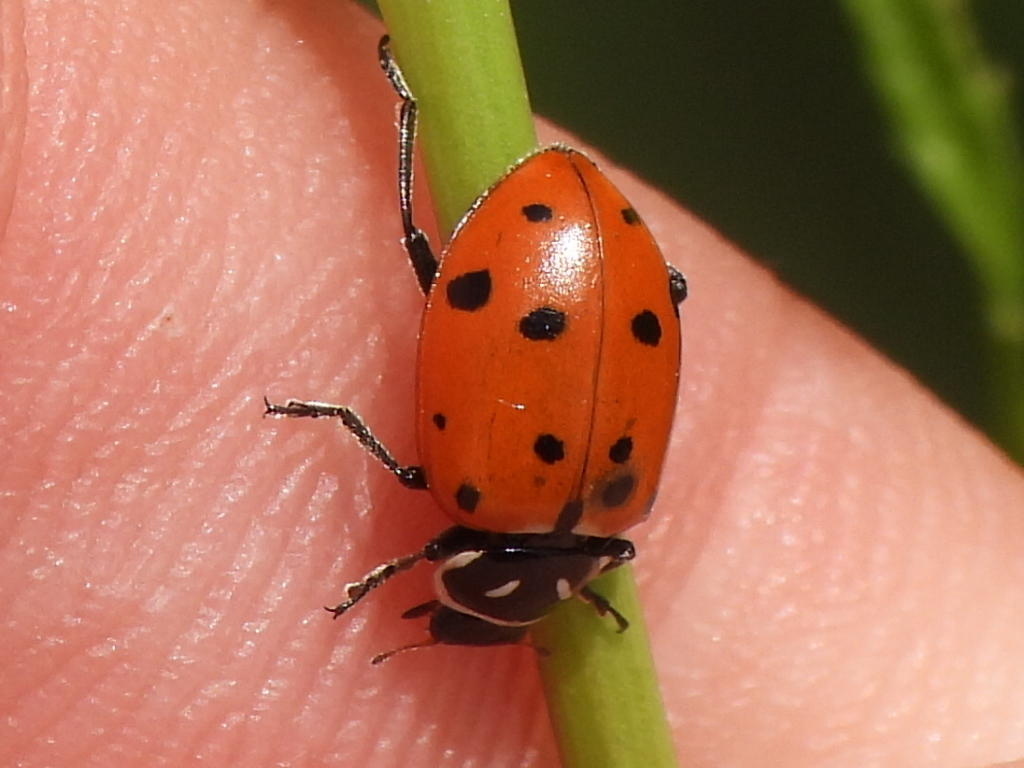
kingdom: Animalia
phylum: Arthropoda
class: Insecta
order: Coleoptera
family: Coccinellidae
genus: Hippodamia
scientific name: Hippodamia convergens
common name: Convergent lady beetle
